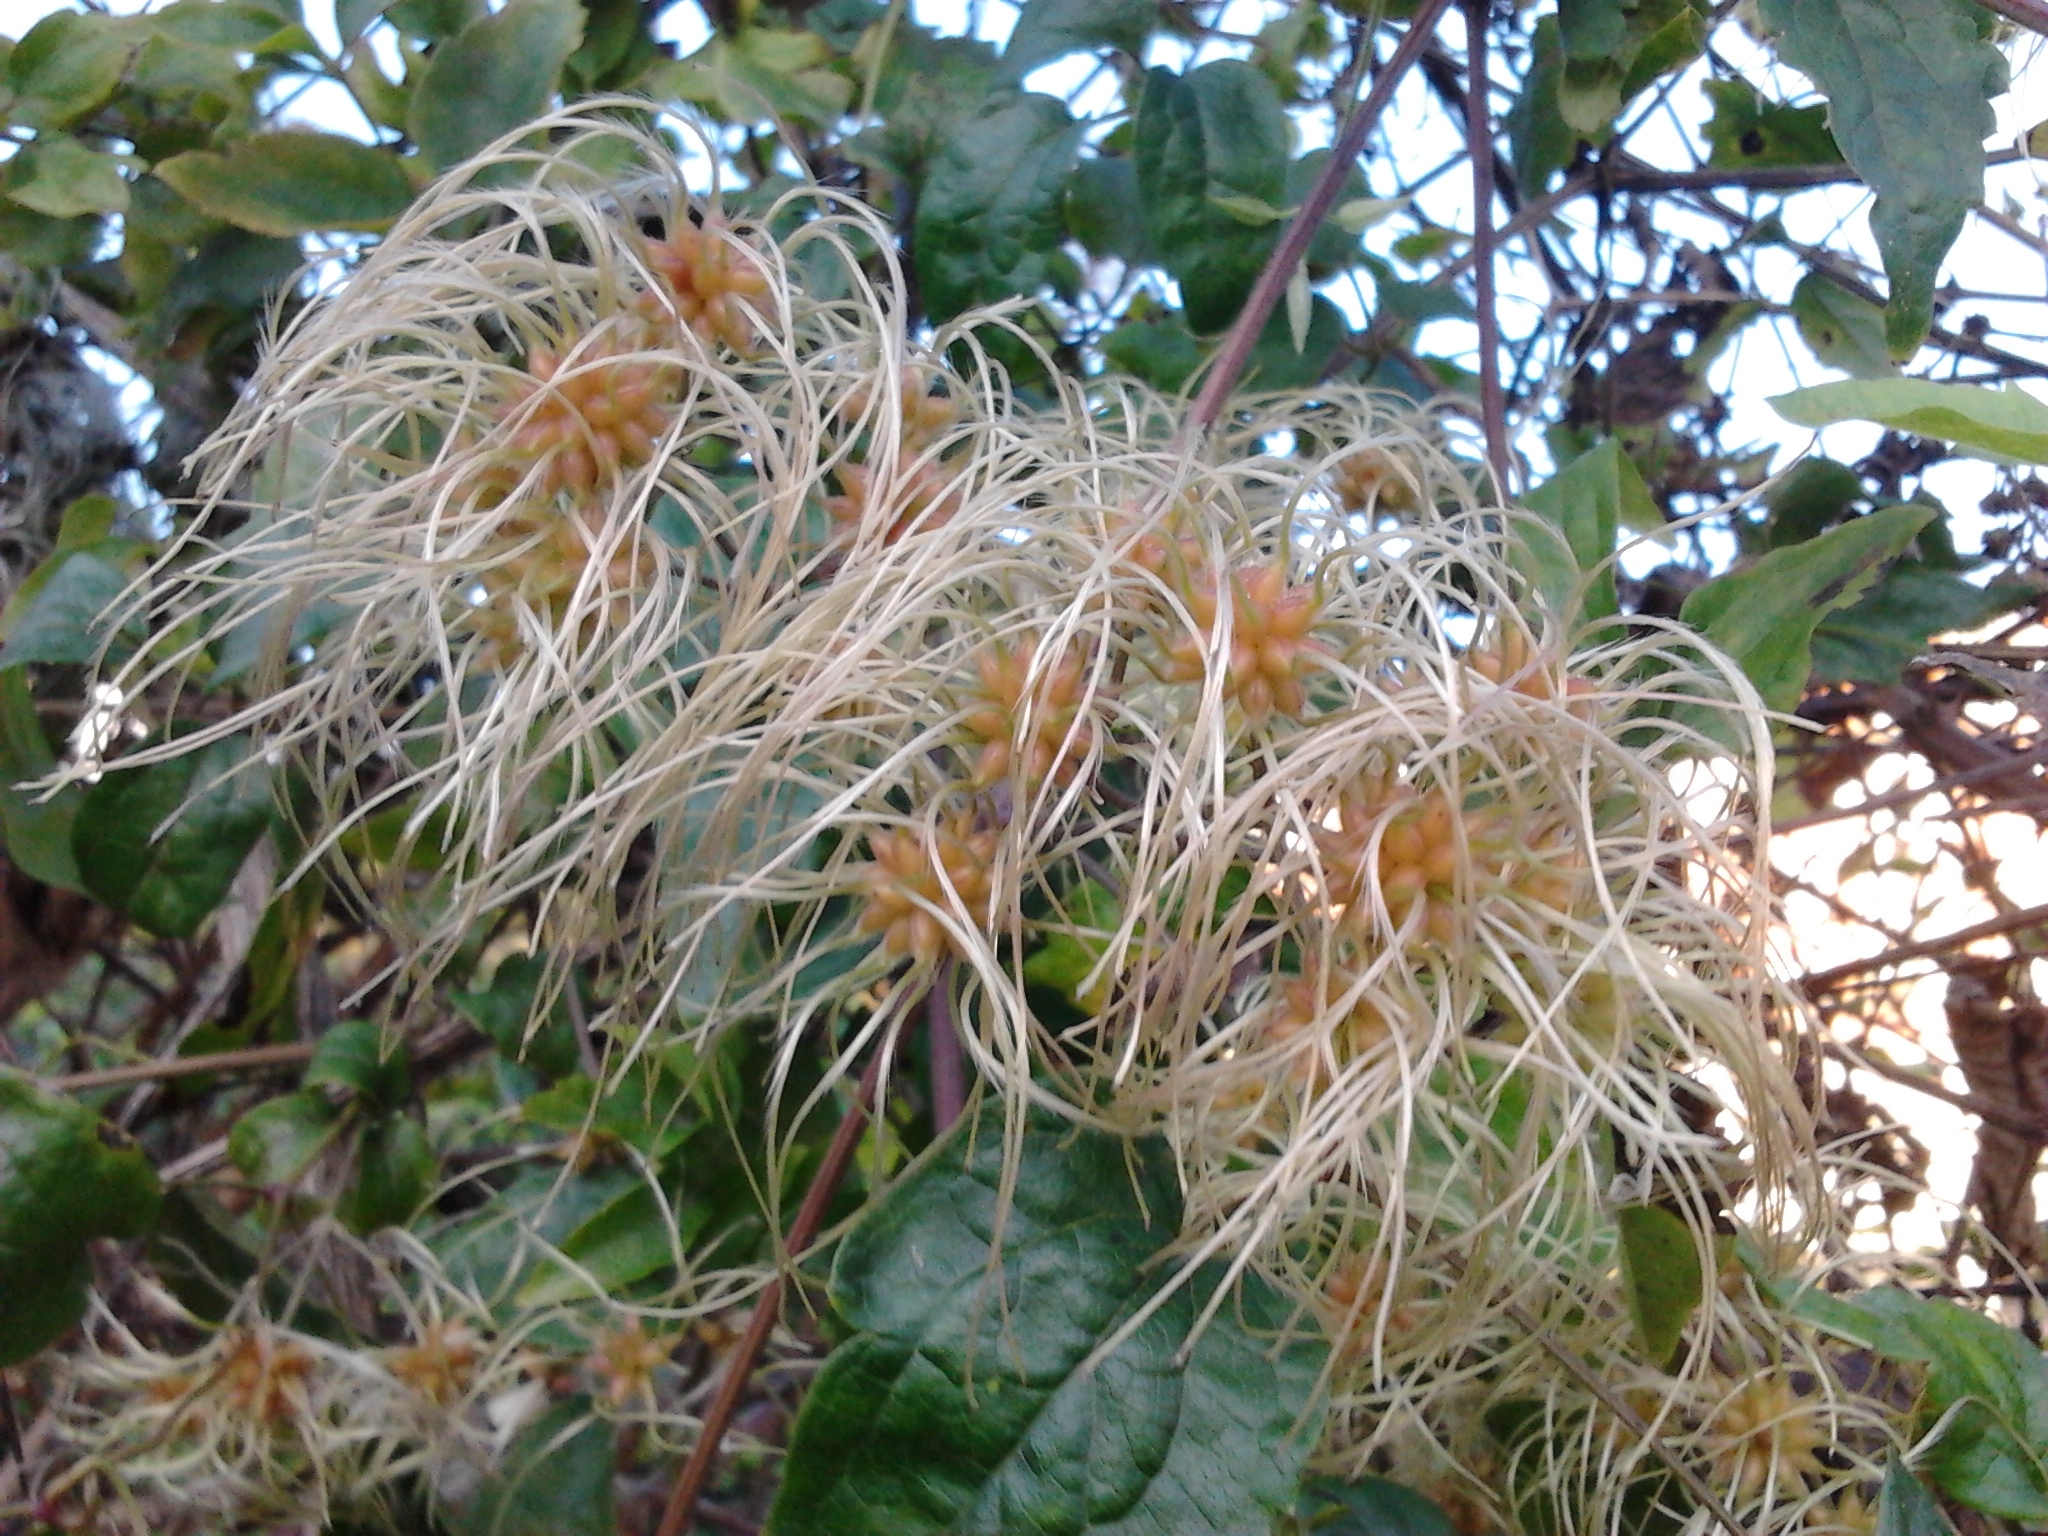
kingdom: Plantae
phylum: Tracheophyta
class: Magnoliopsida
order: Ranunculales
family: Ranunculaceae
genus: Clematis
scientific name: Clematis vitalba
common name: Evergreen clematis
